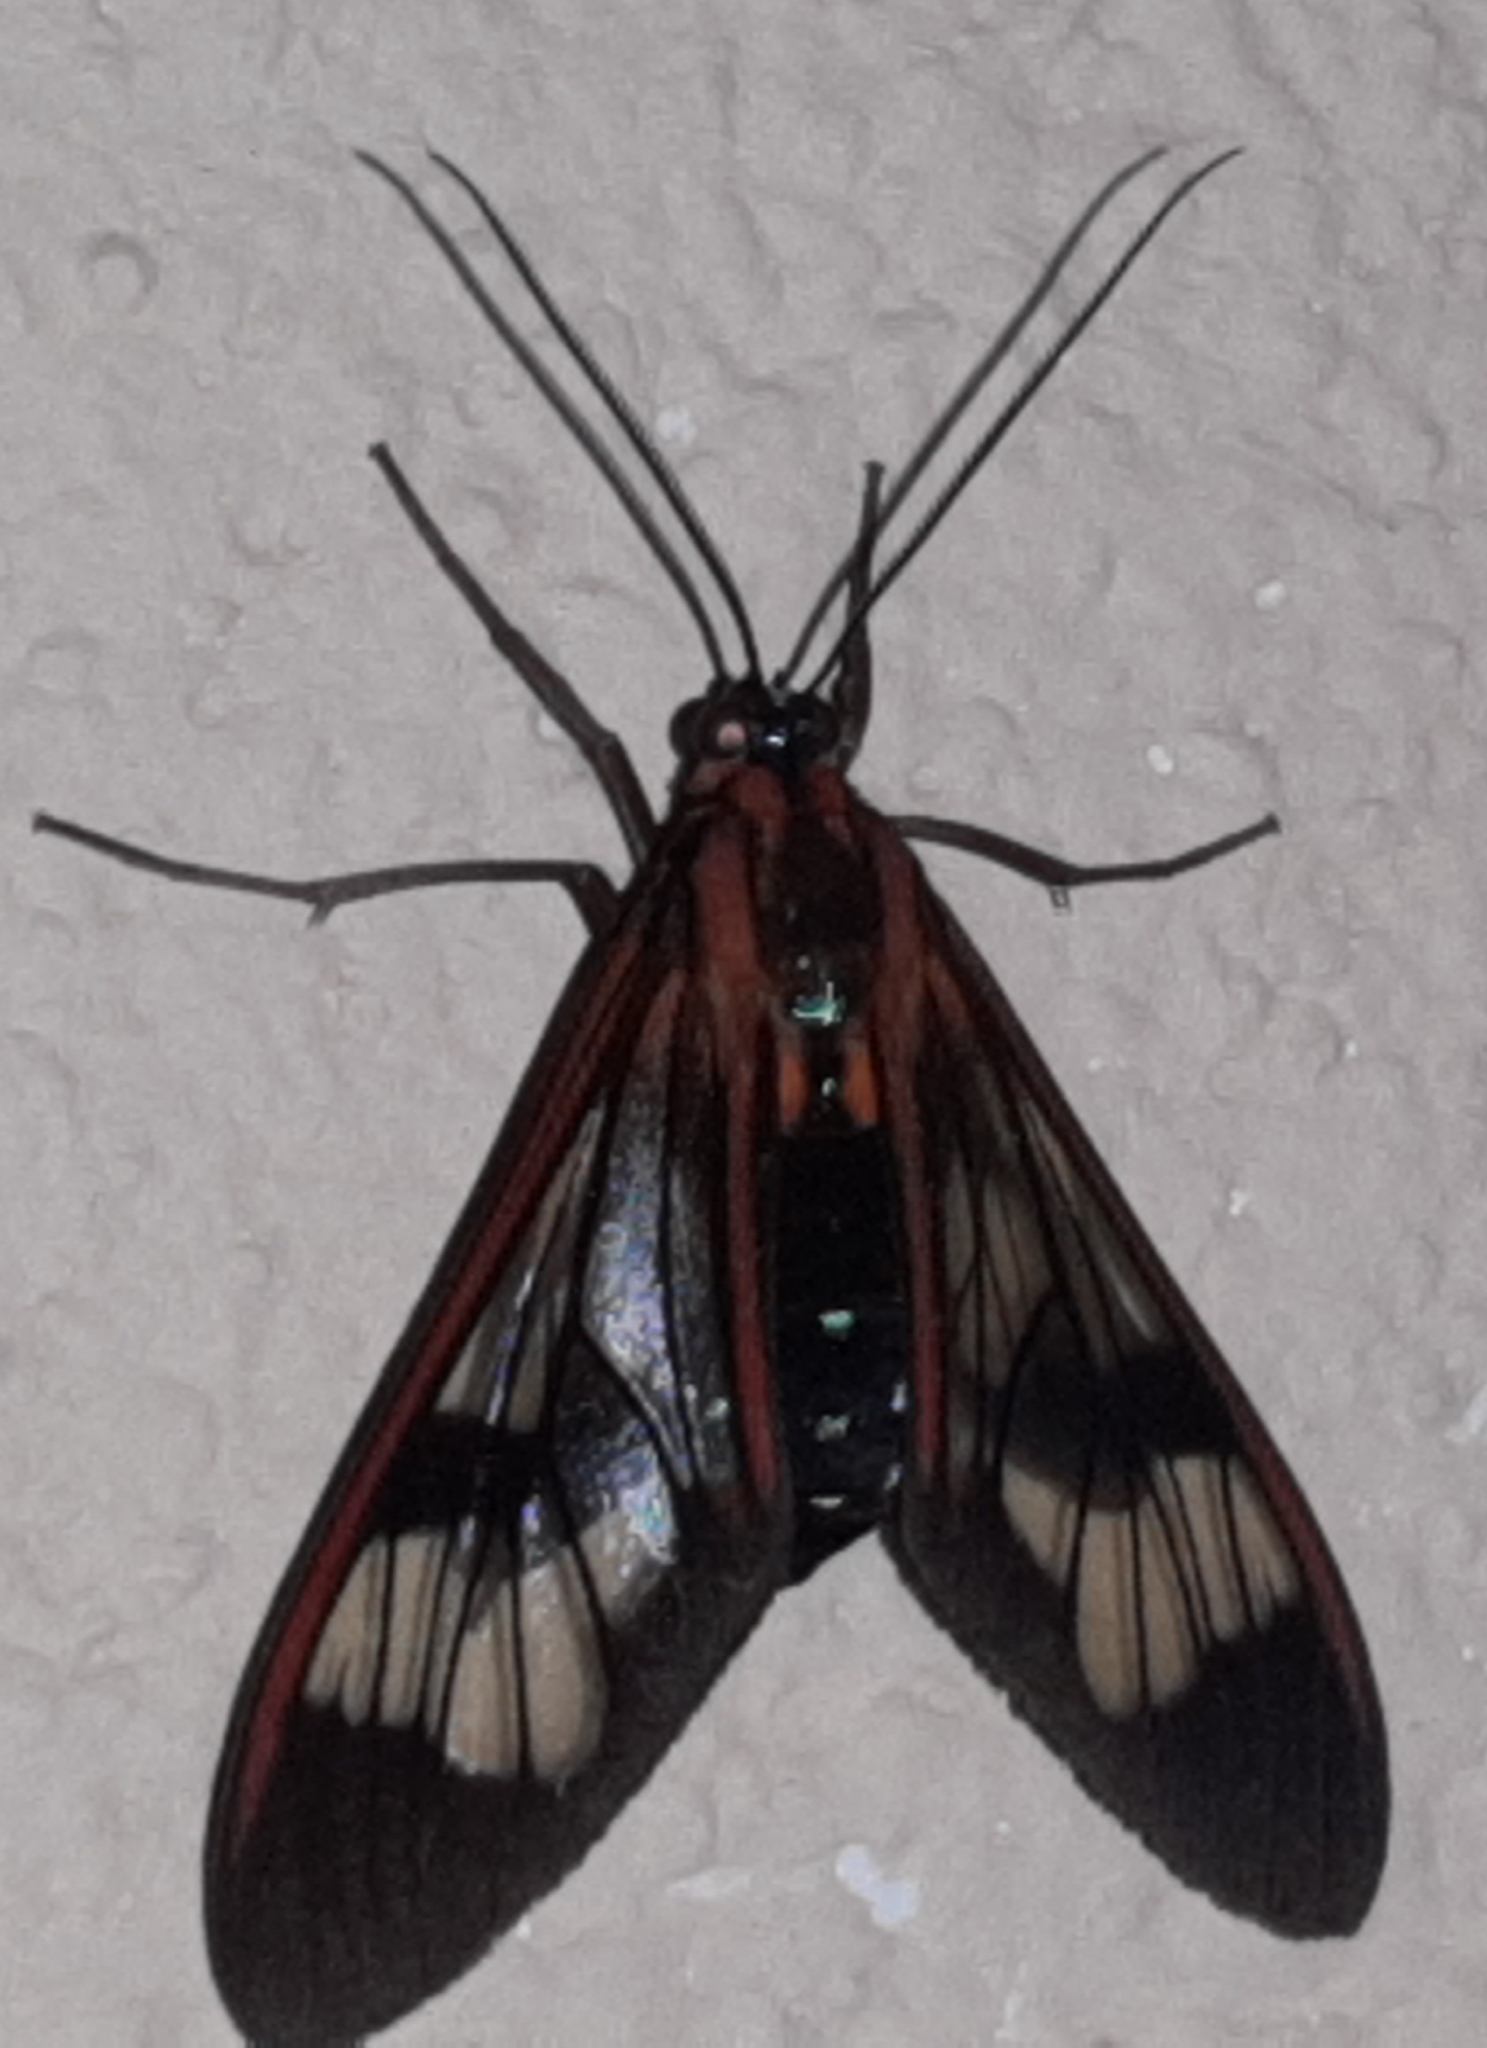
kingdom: Animalia
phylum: Arthropoda
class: Insecta
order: Lepidoptera
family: Erebidae
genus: Lepidoneiva
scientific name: Lepidoneiva caecum
